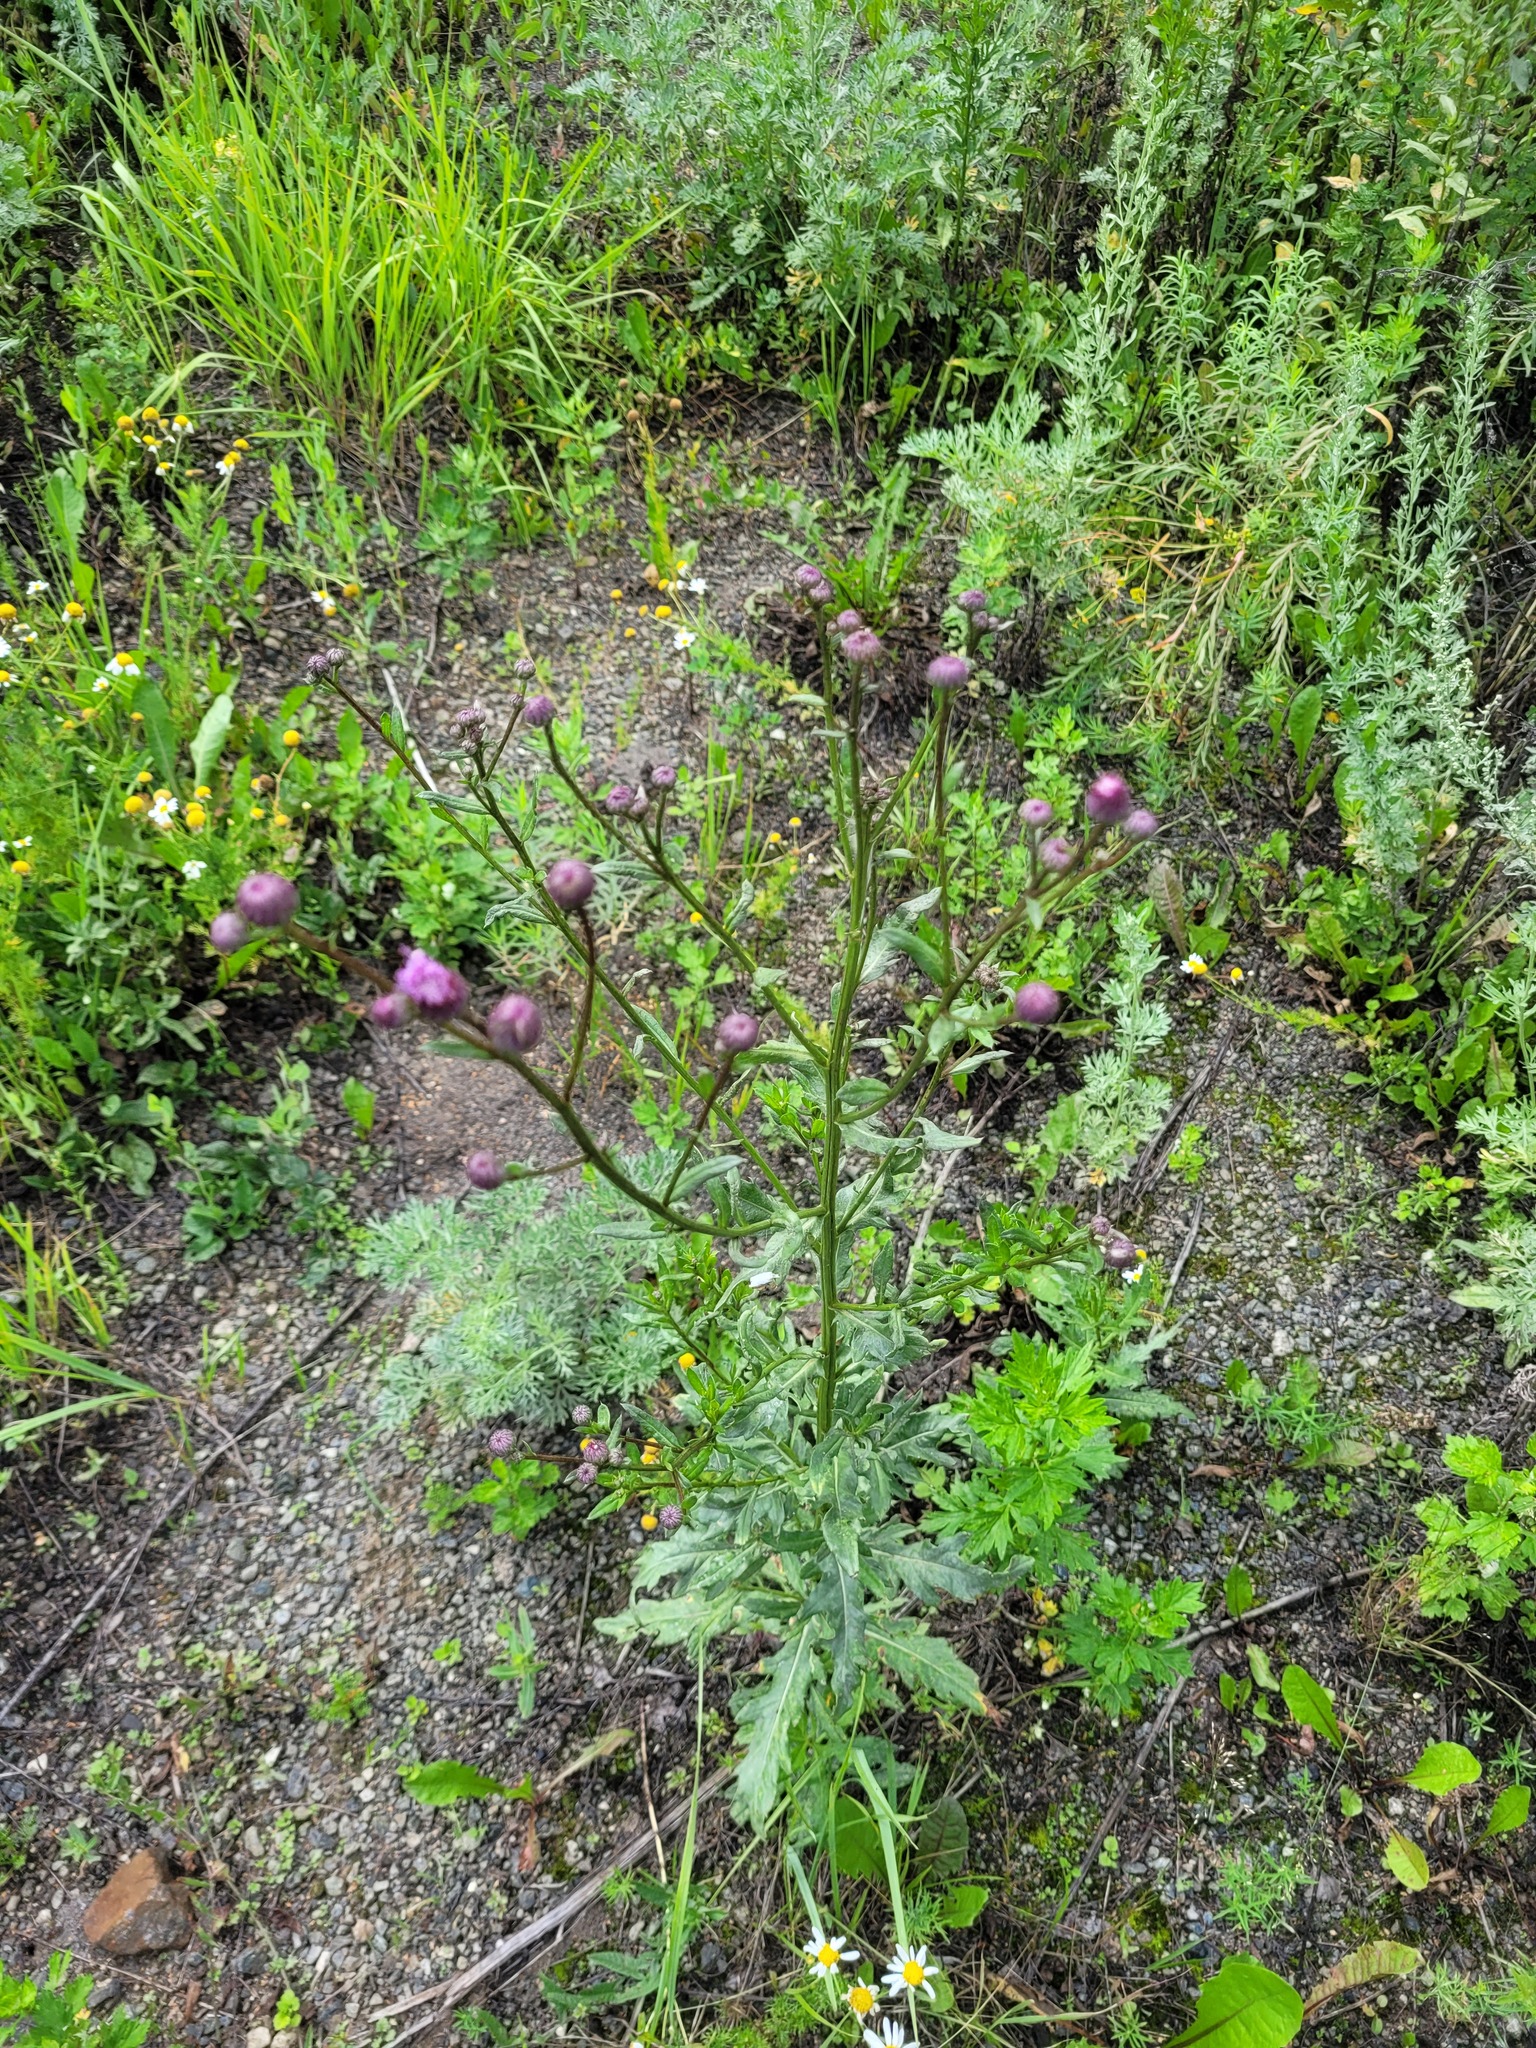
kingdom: Plantae
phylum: Tracheophyta
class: Magnoliopsida
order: Asterales
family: Asteraceae
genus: Cirsium
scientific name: Cirsium arvense
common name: Creeping thistle
